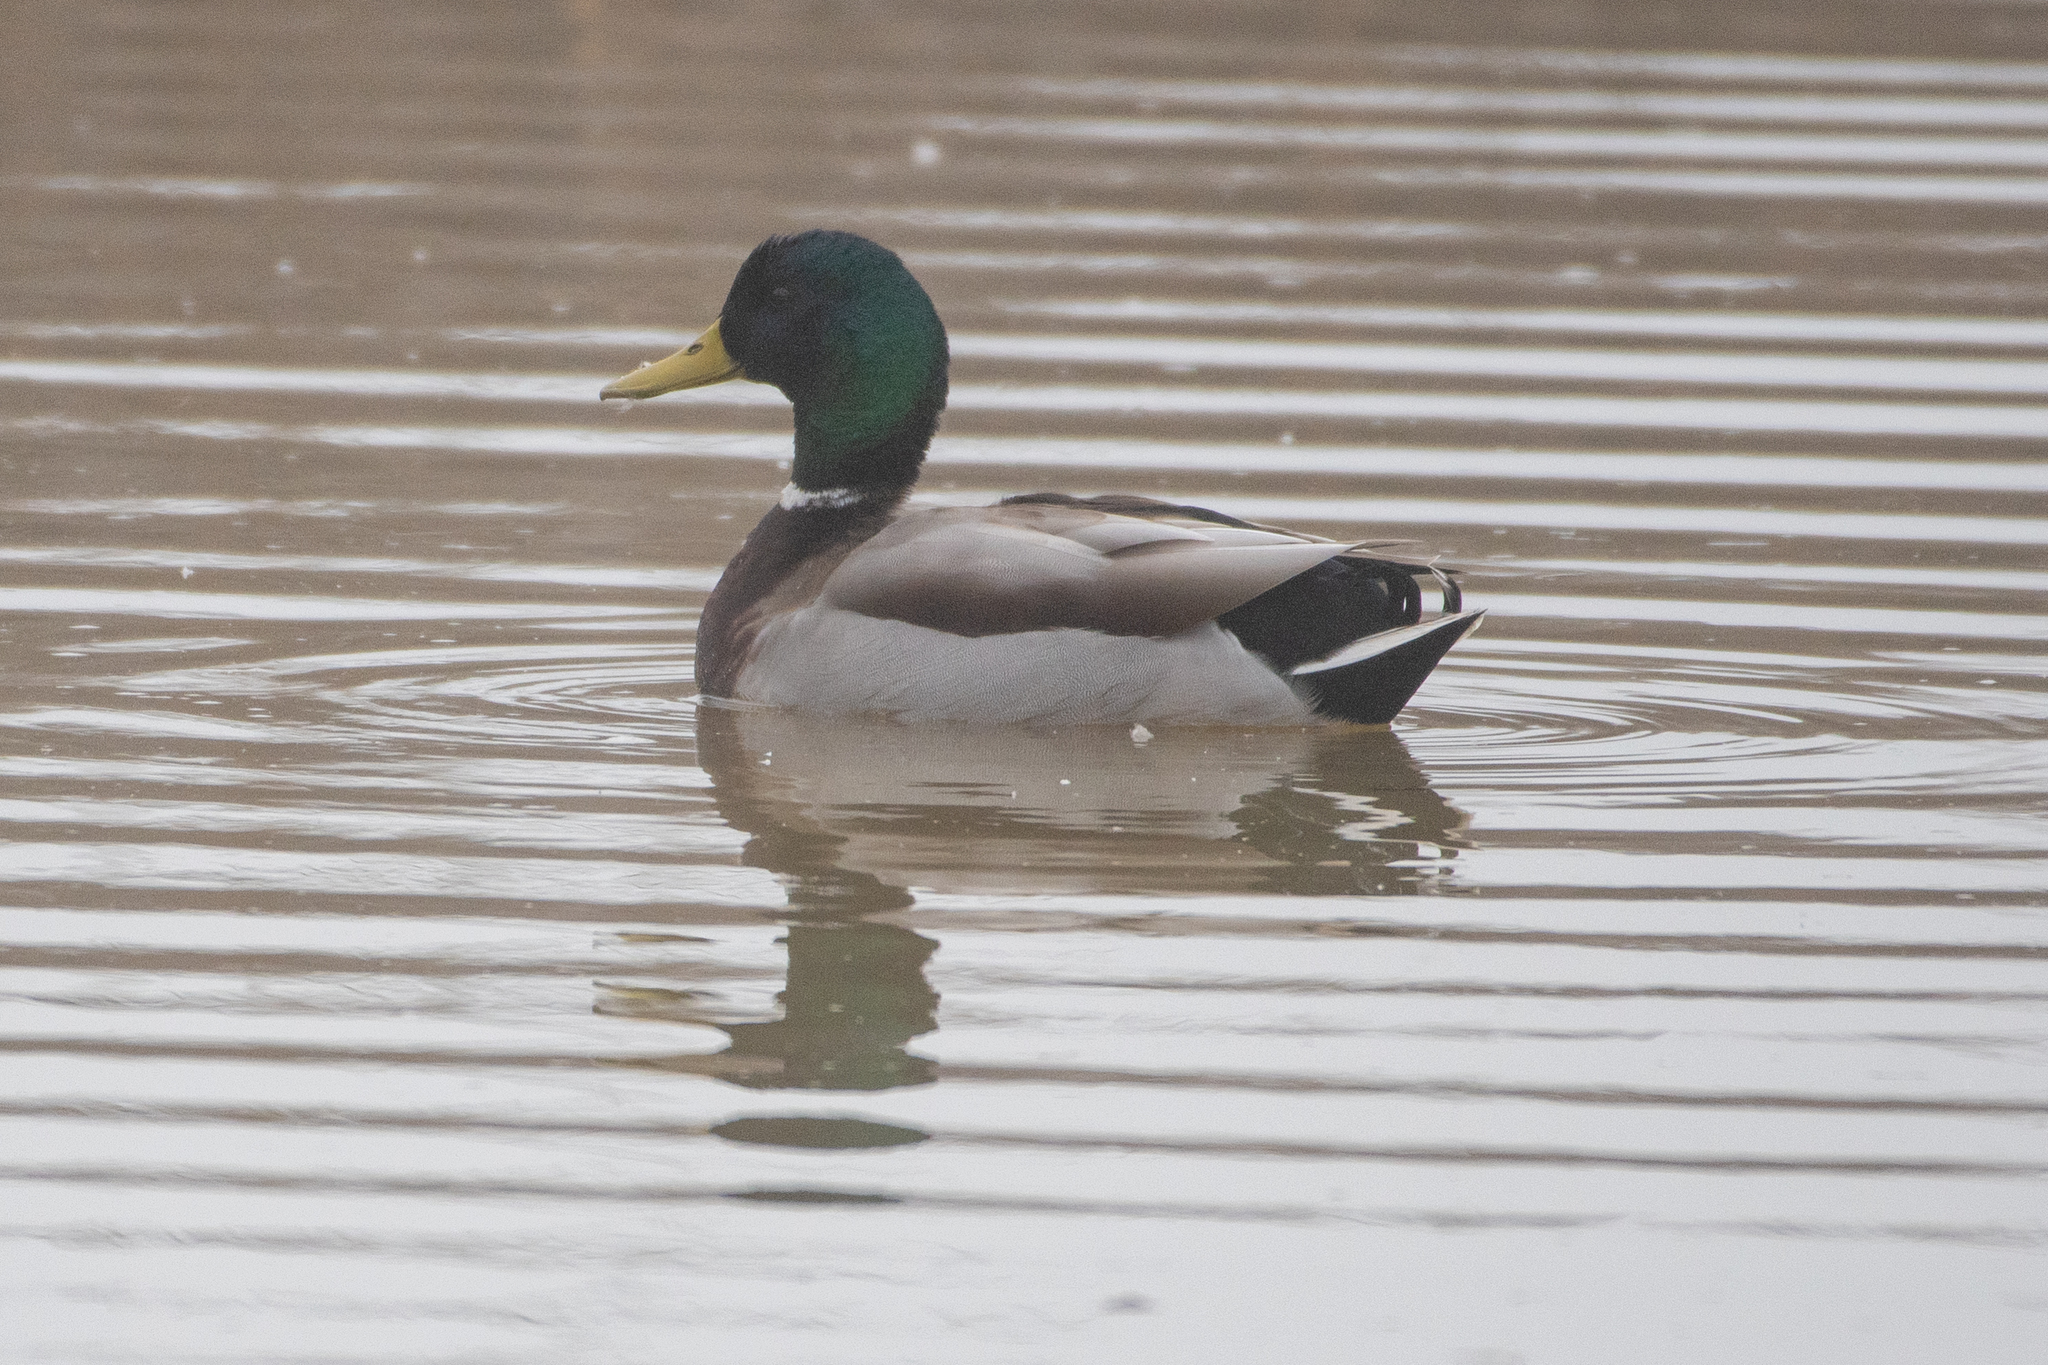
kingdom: Animalia
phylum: Chordata
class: Aves
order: Anseriformes
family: Anatidae
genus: Anas
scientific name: Anas platyrhynchos
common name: Mallard
